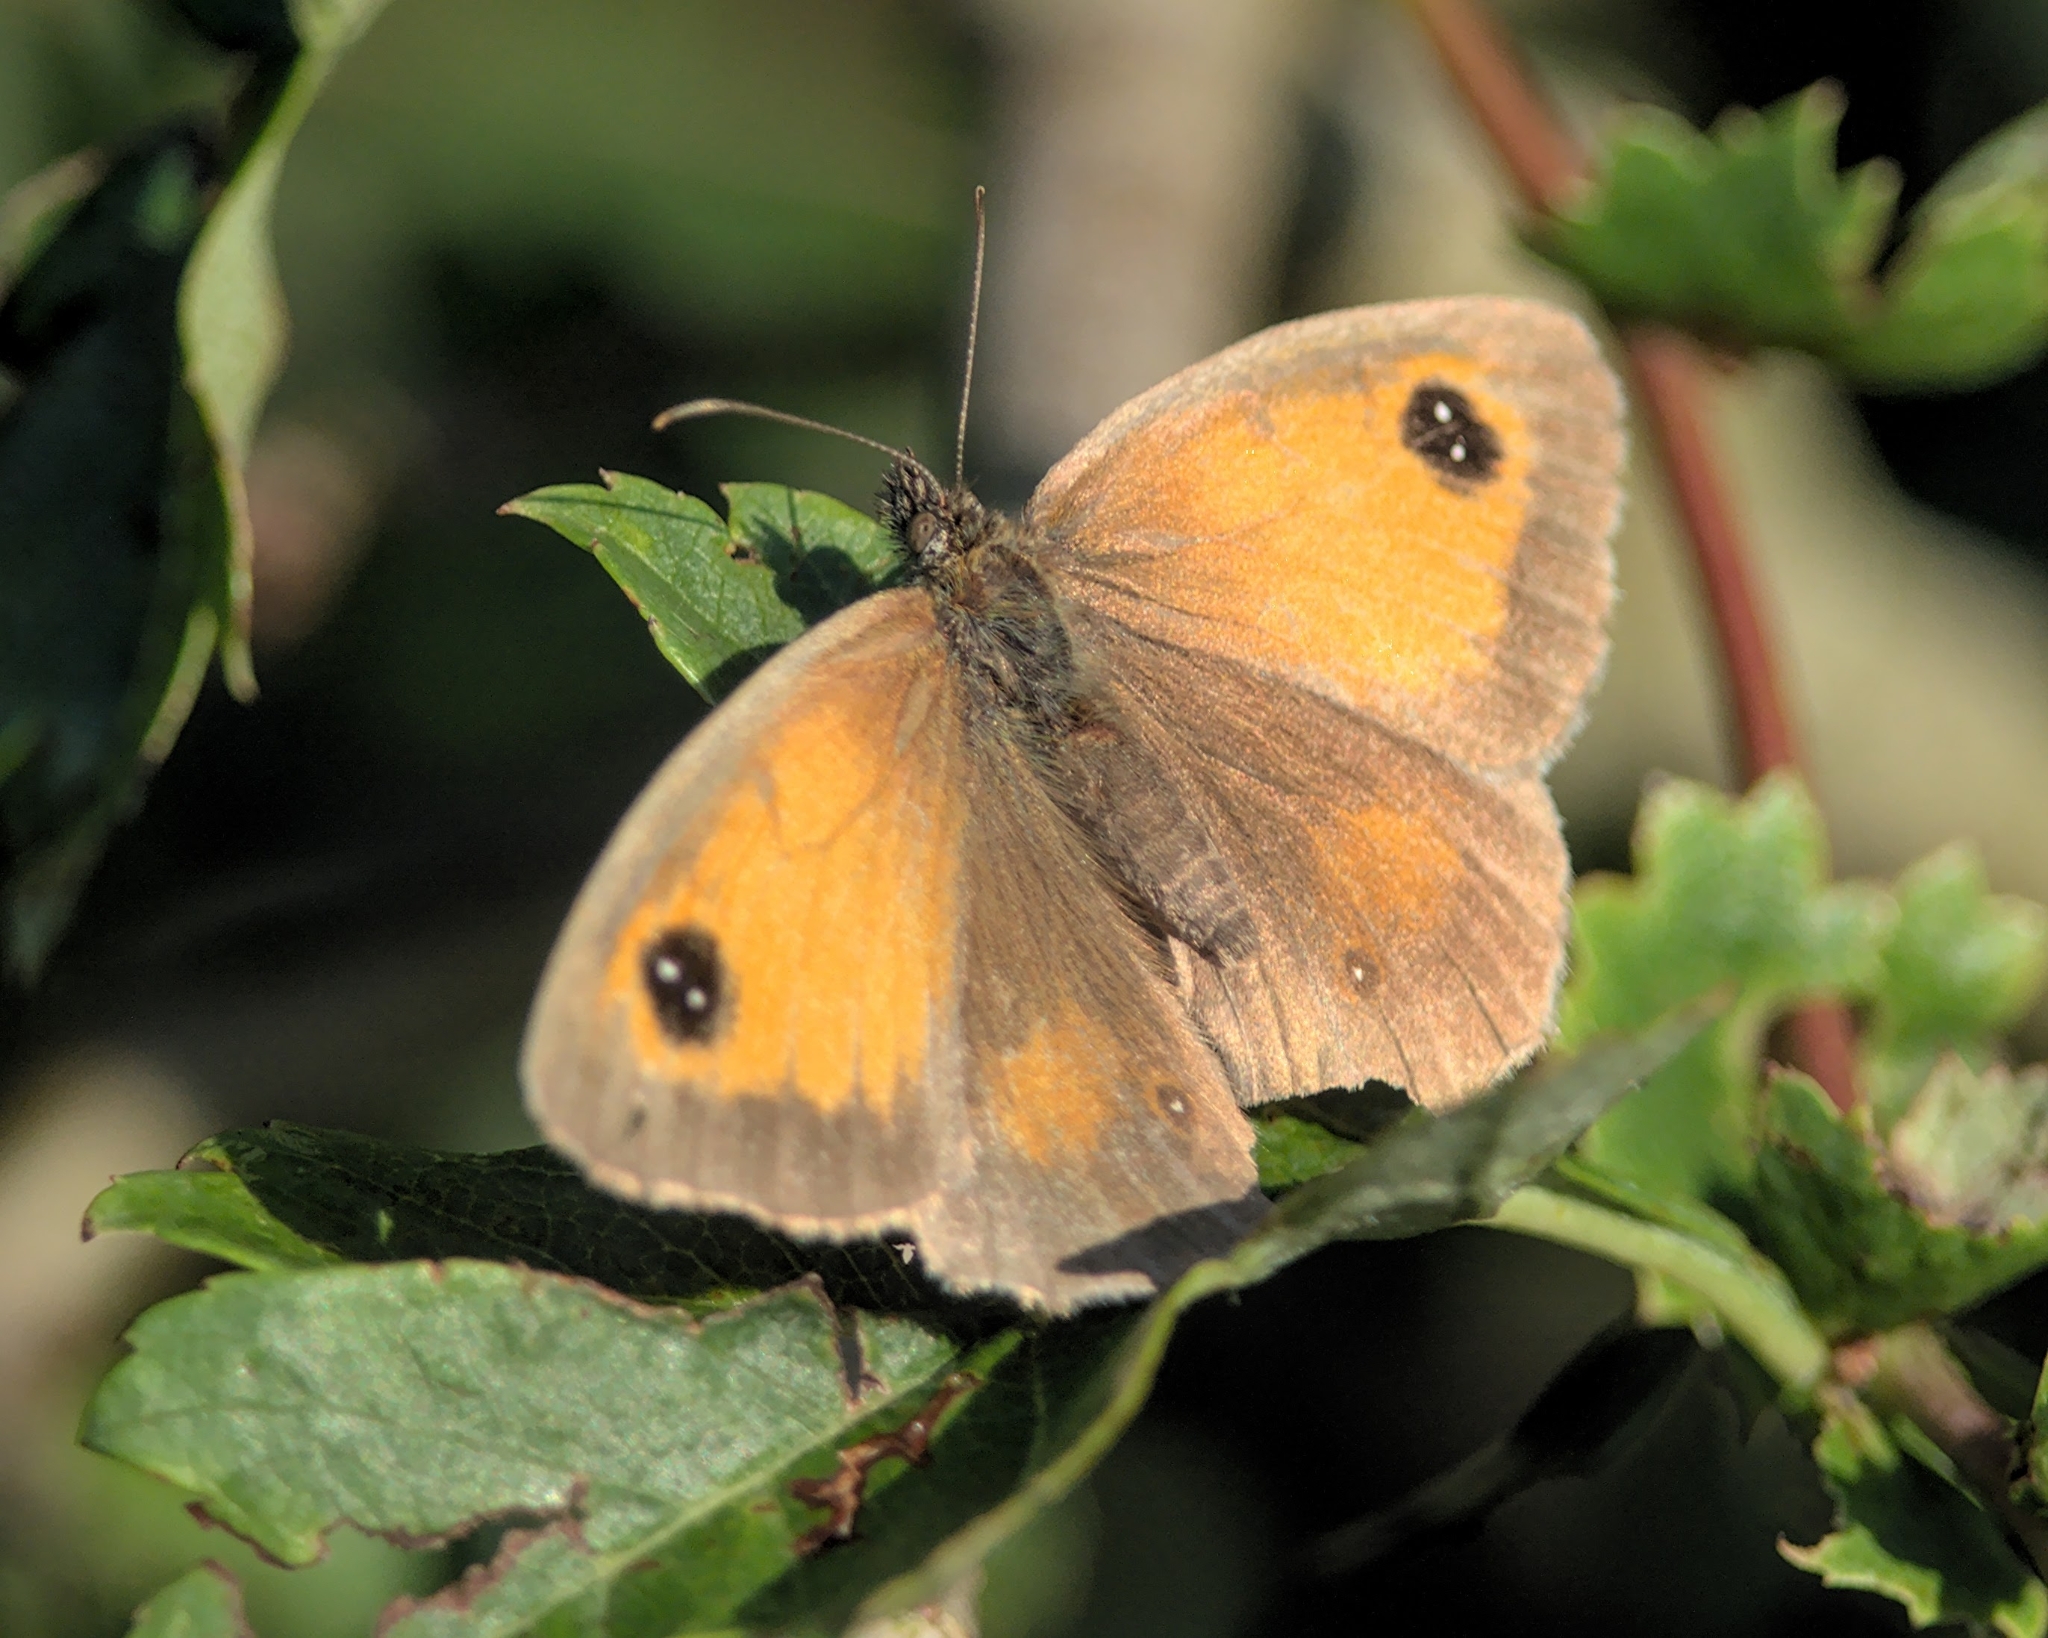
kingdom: Animalia
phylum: Arthropoda
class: Insecta
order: Lepidoptera
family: Nymphalidae
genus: Pyronia
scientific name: Pyronia tithonus
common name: Gatekeeper
